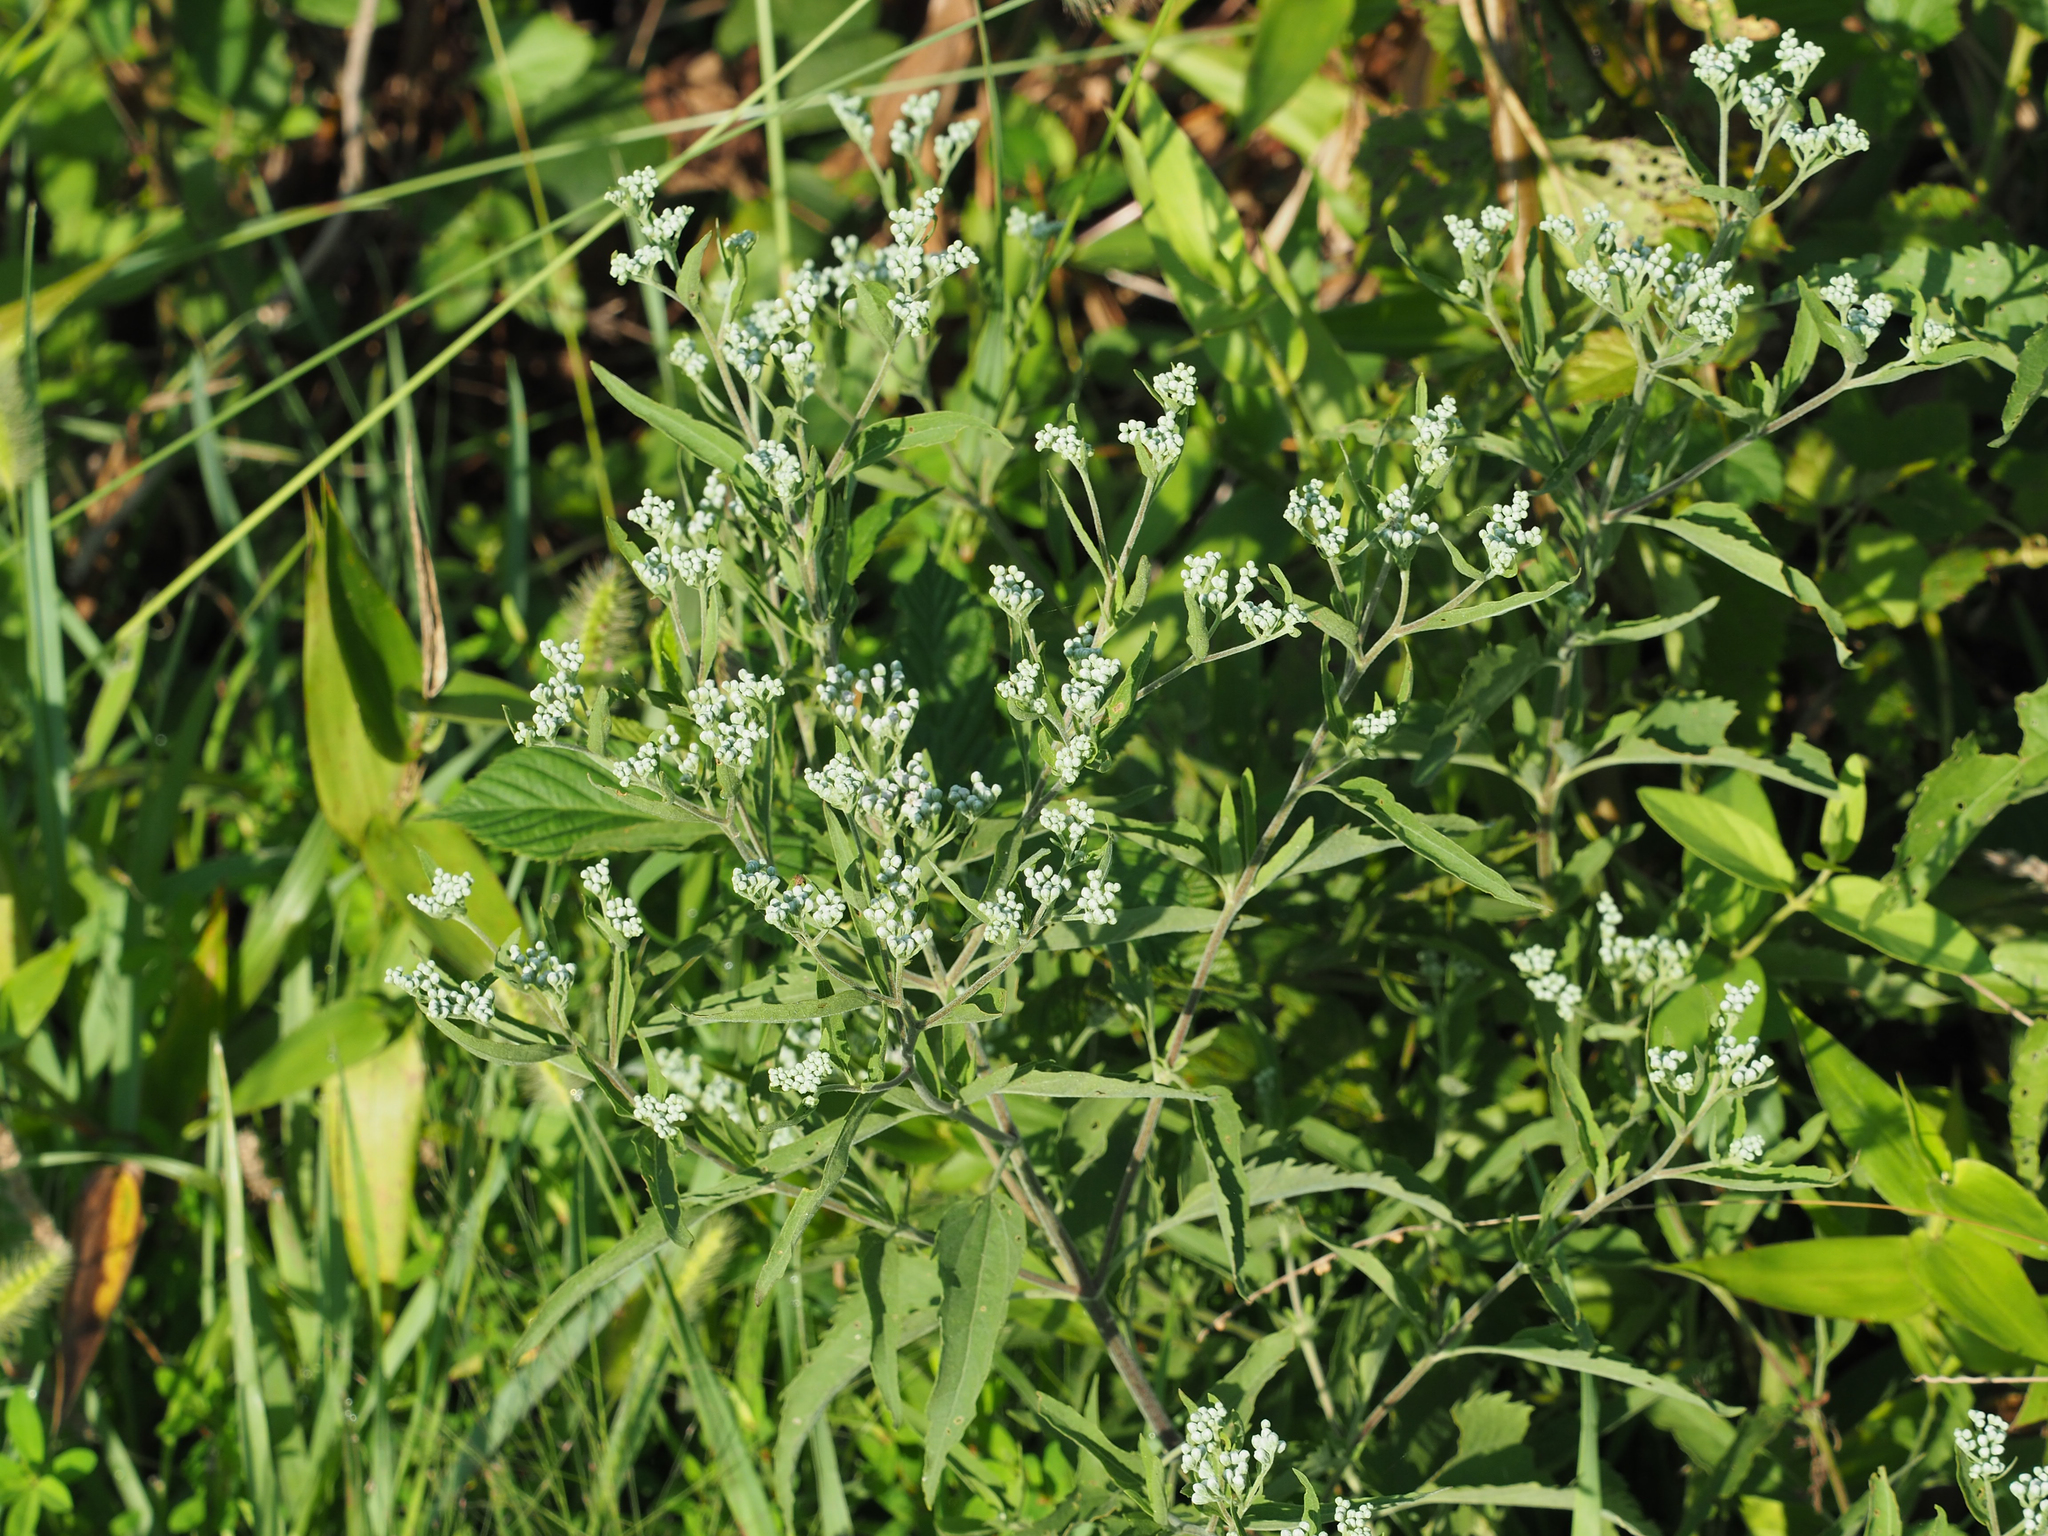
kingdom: Plantae
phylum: Tracheophyta
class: Magnoliopsida
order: Asterales
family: Asteraceae
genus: Eupatorium
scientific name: Eupatorium serotinum
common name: Late boneset
